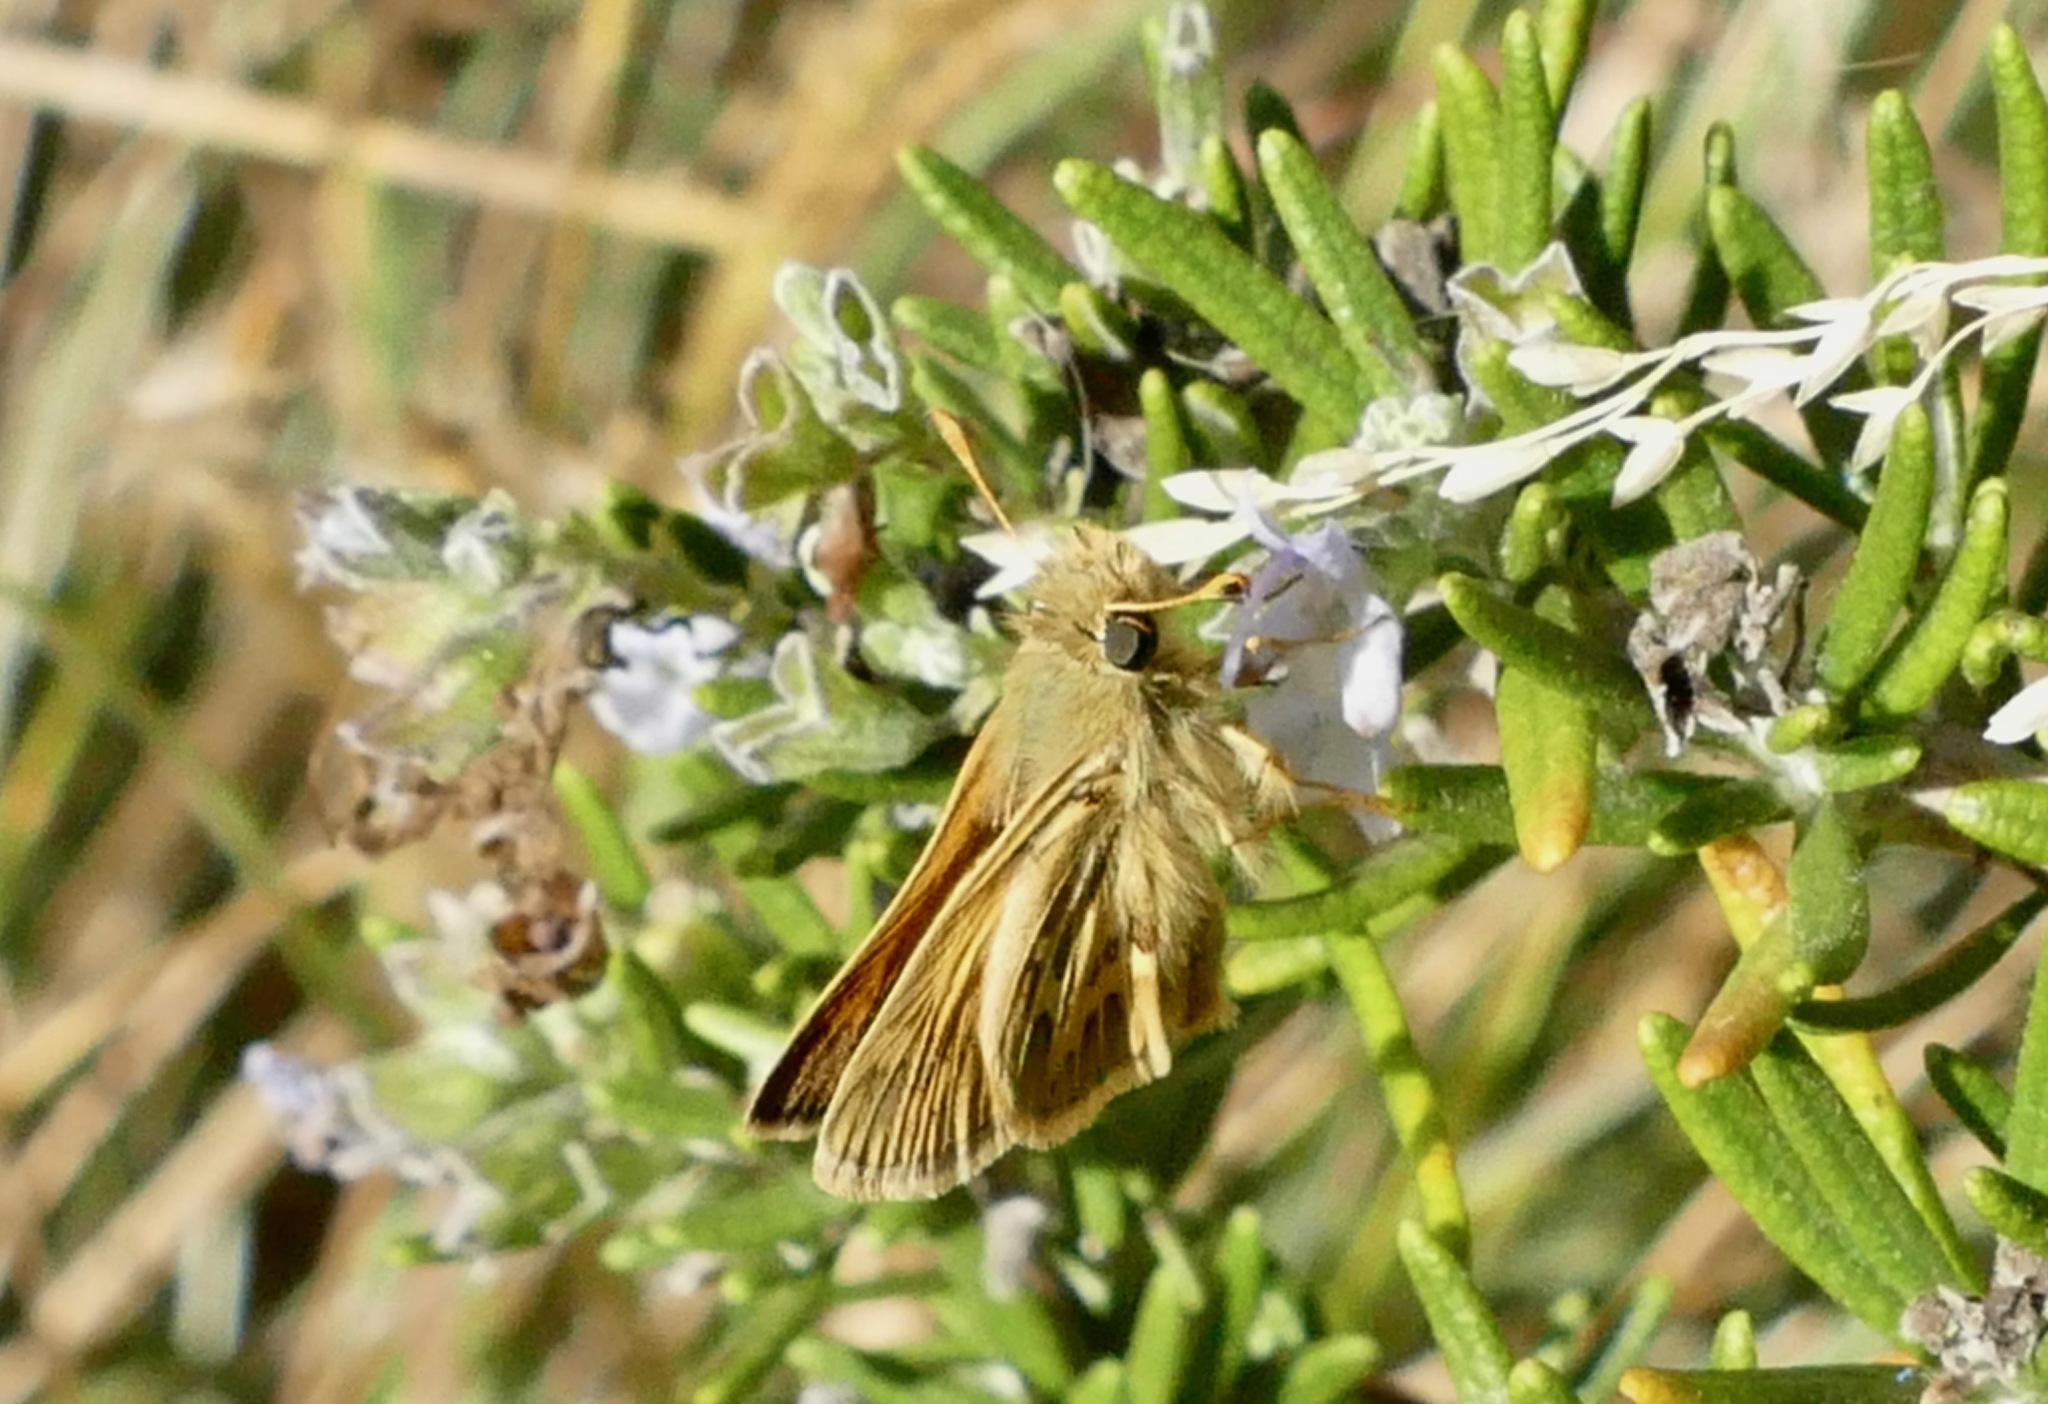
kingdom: Animalia
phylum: Arthropoda
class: Insecta
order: Lepidoptera
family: Hesperiidae
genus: Polites
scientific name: Polites sabuleti
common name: Sandhill skipper
